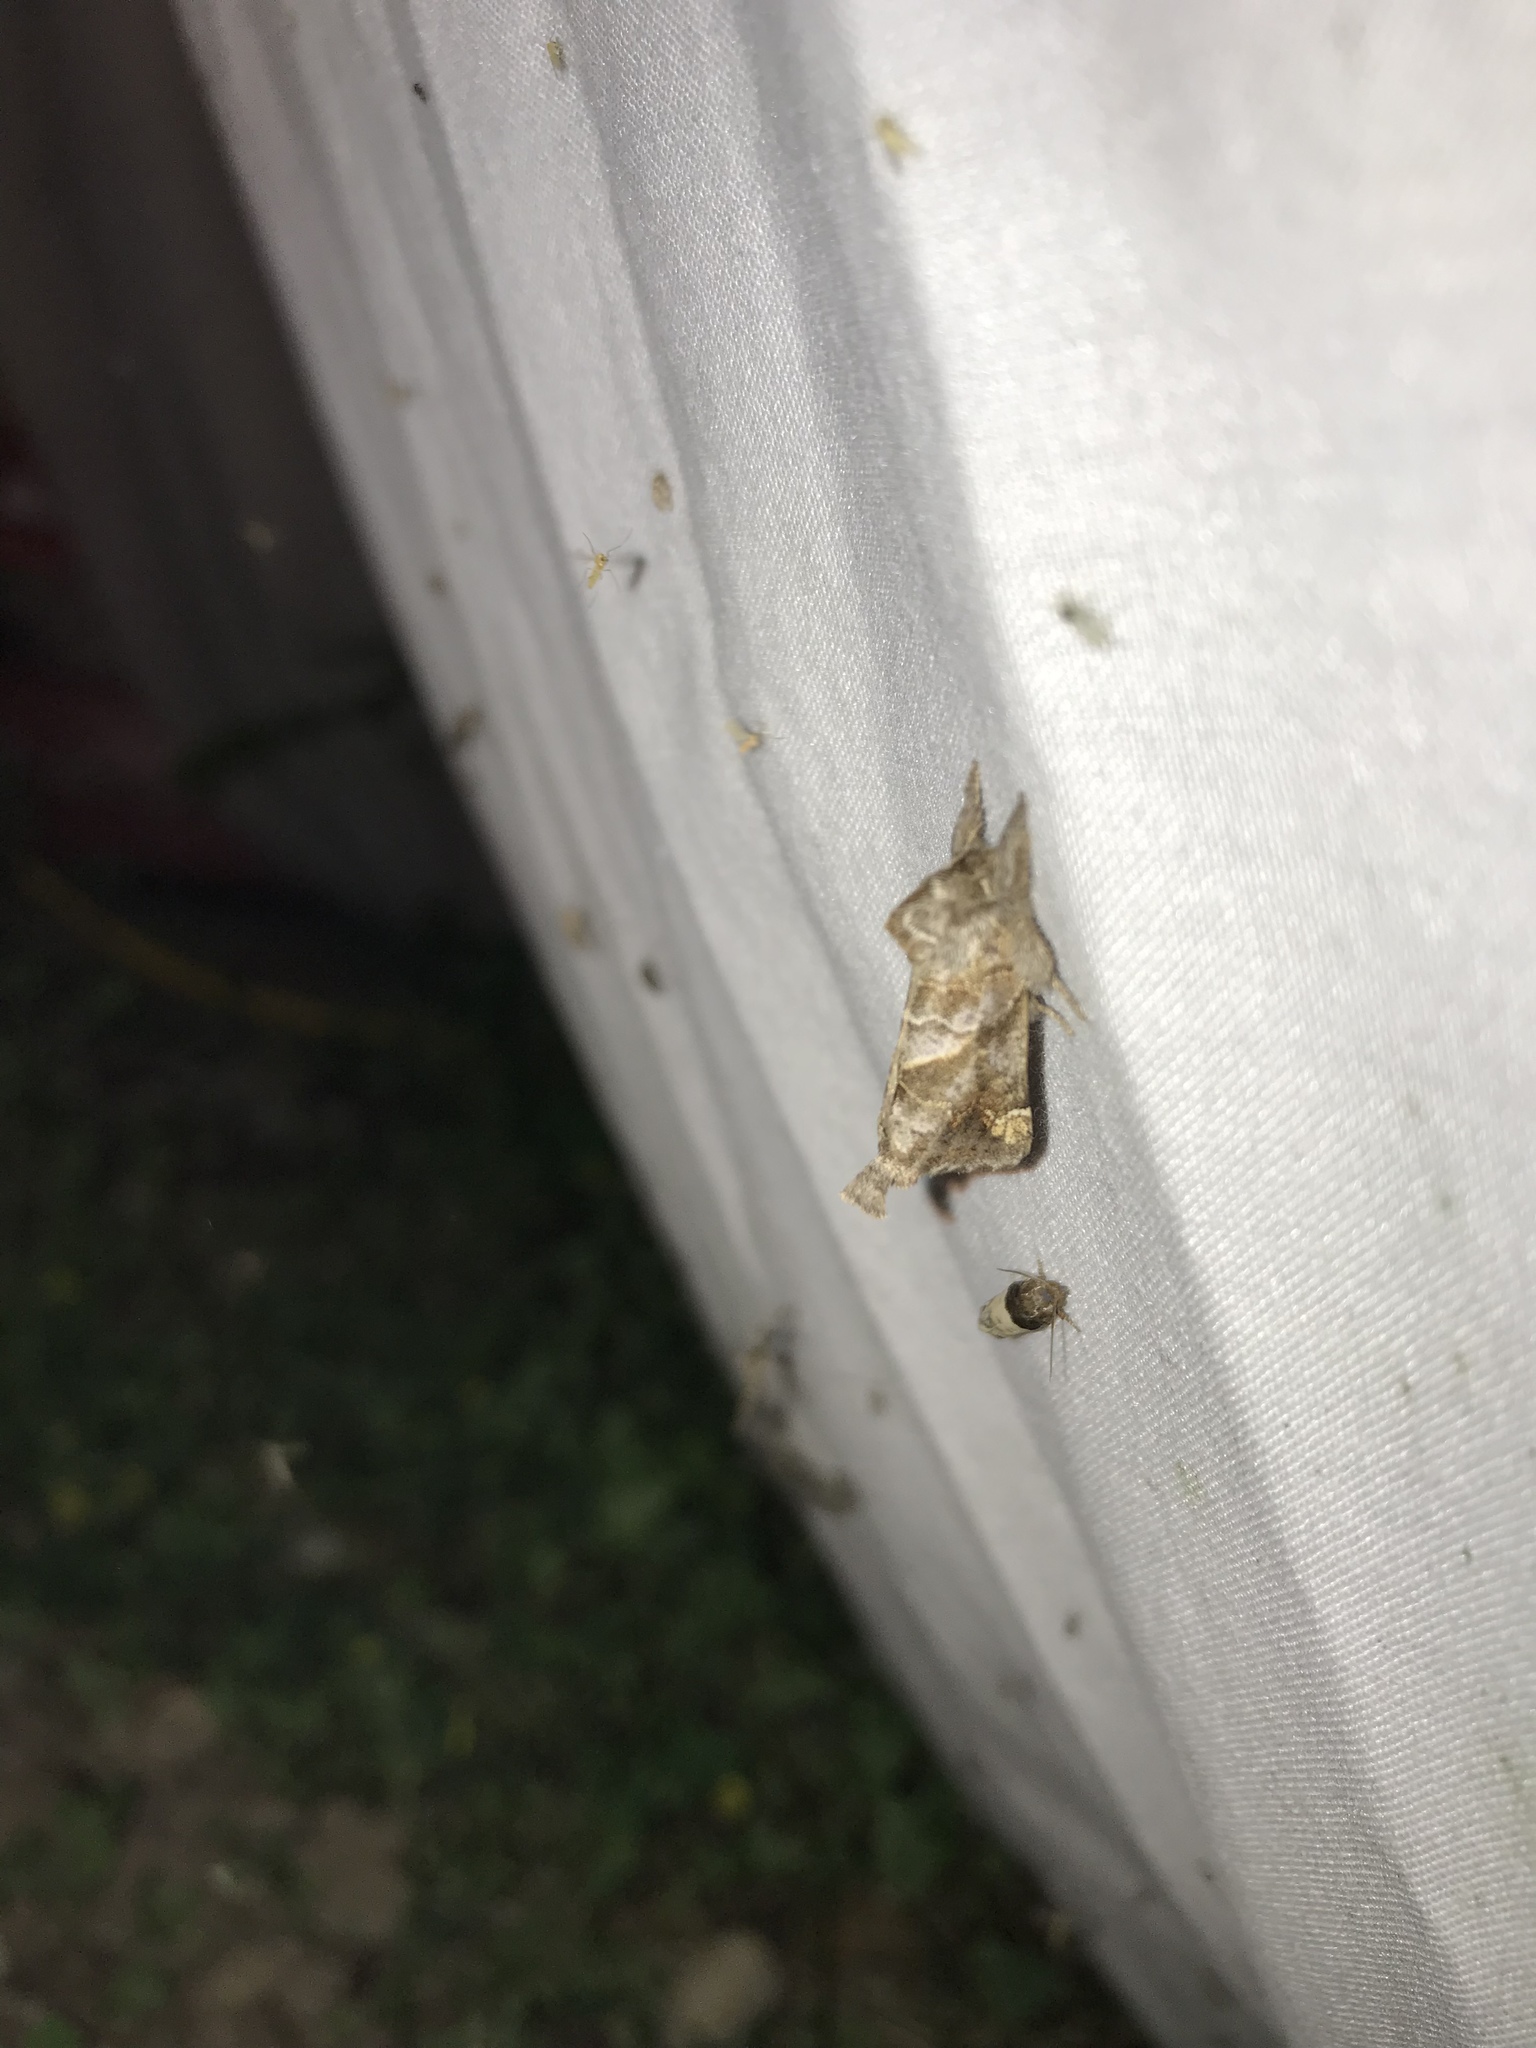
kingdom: Animalia
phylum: Arthropoda
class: Insecta
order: Lepidoptera
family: Notodontidae
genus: Clostera
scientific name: Clostera strigosa
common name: Striped chocolate-tip moth
